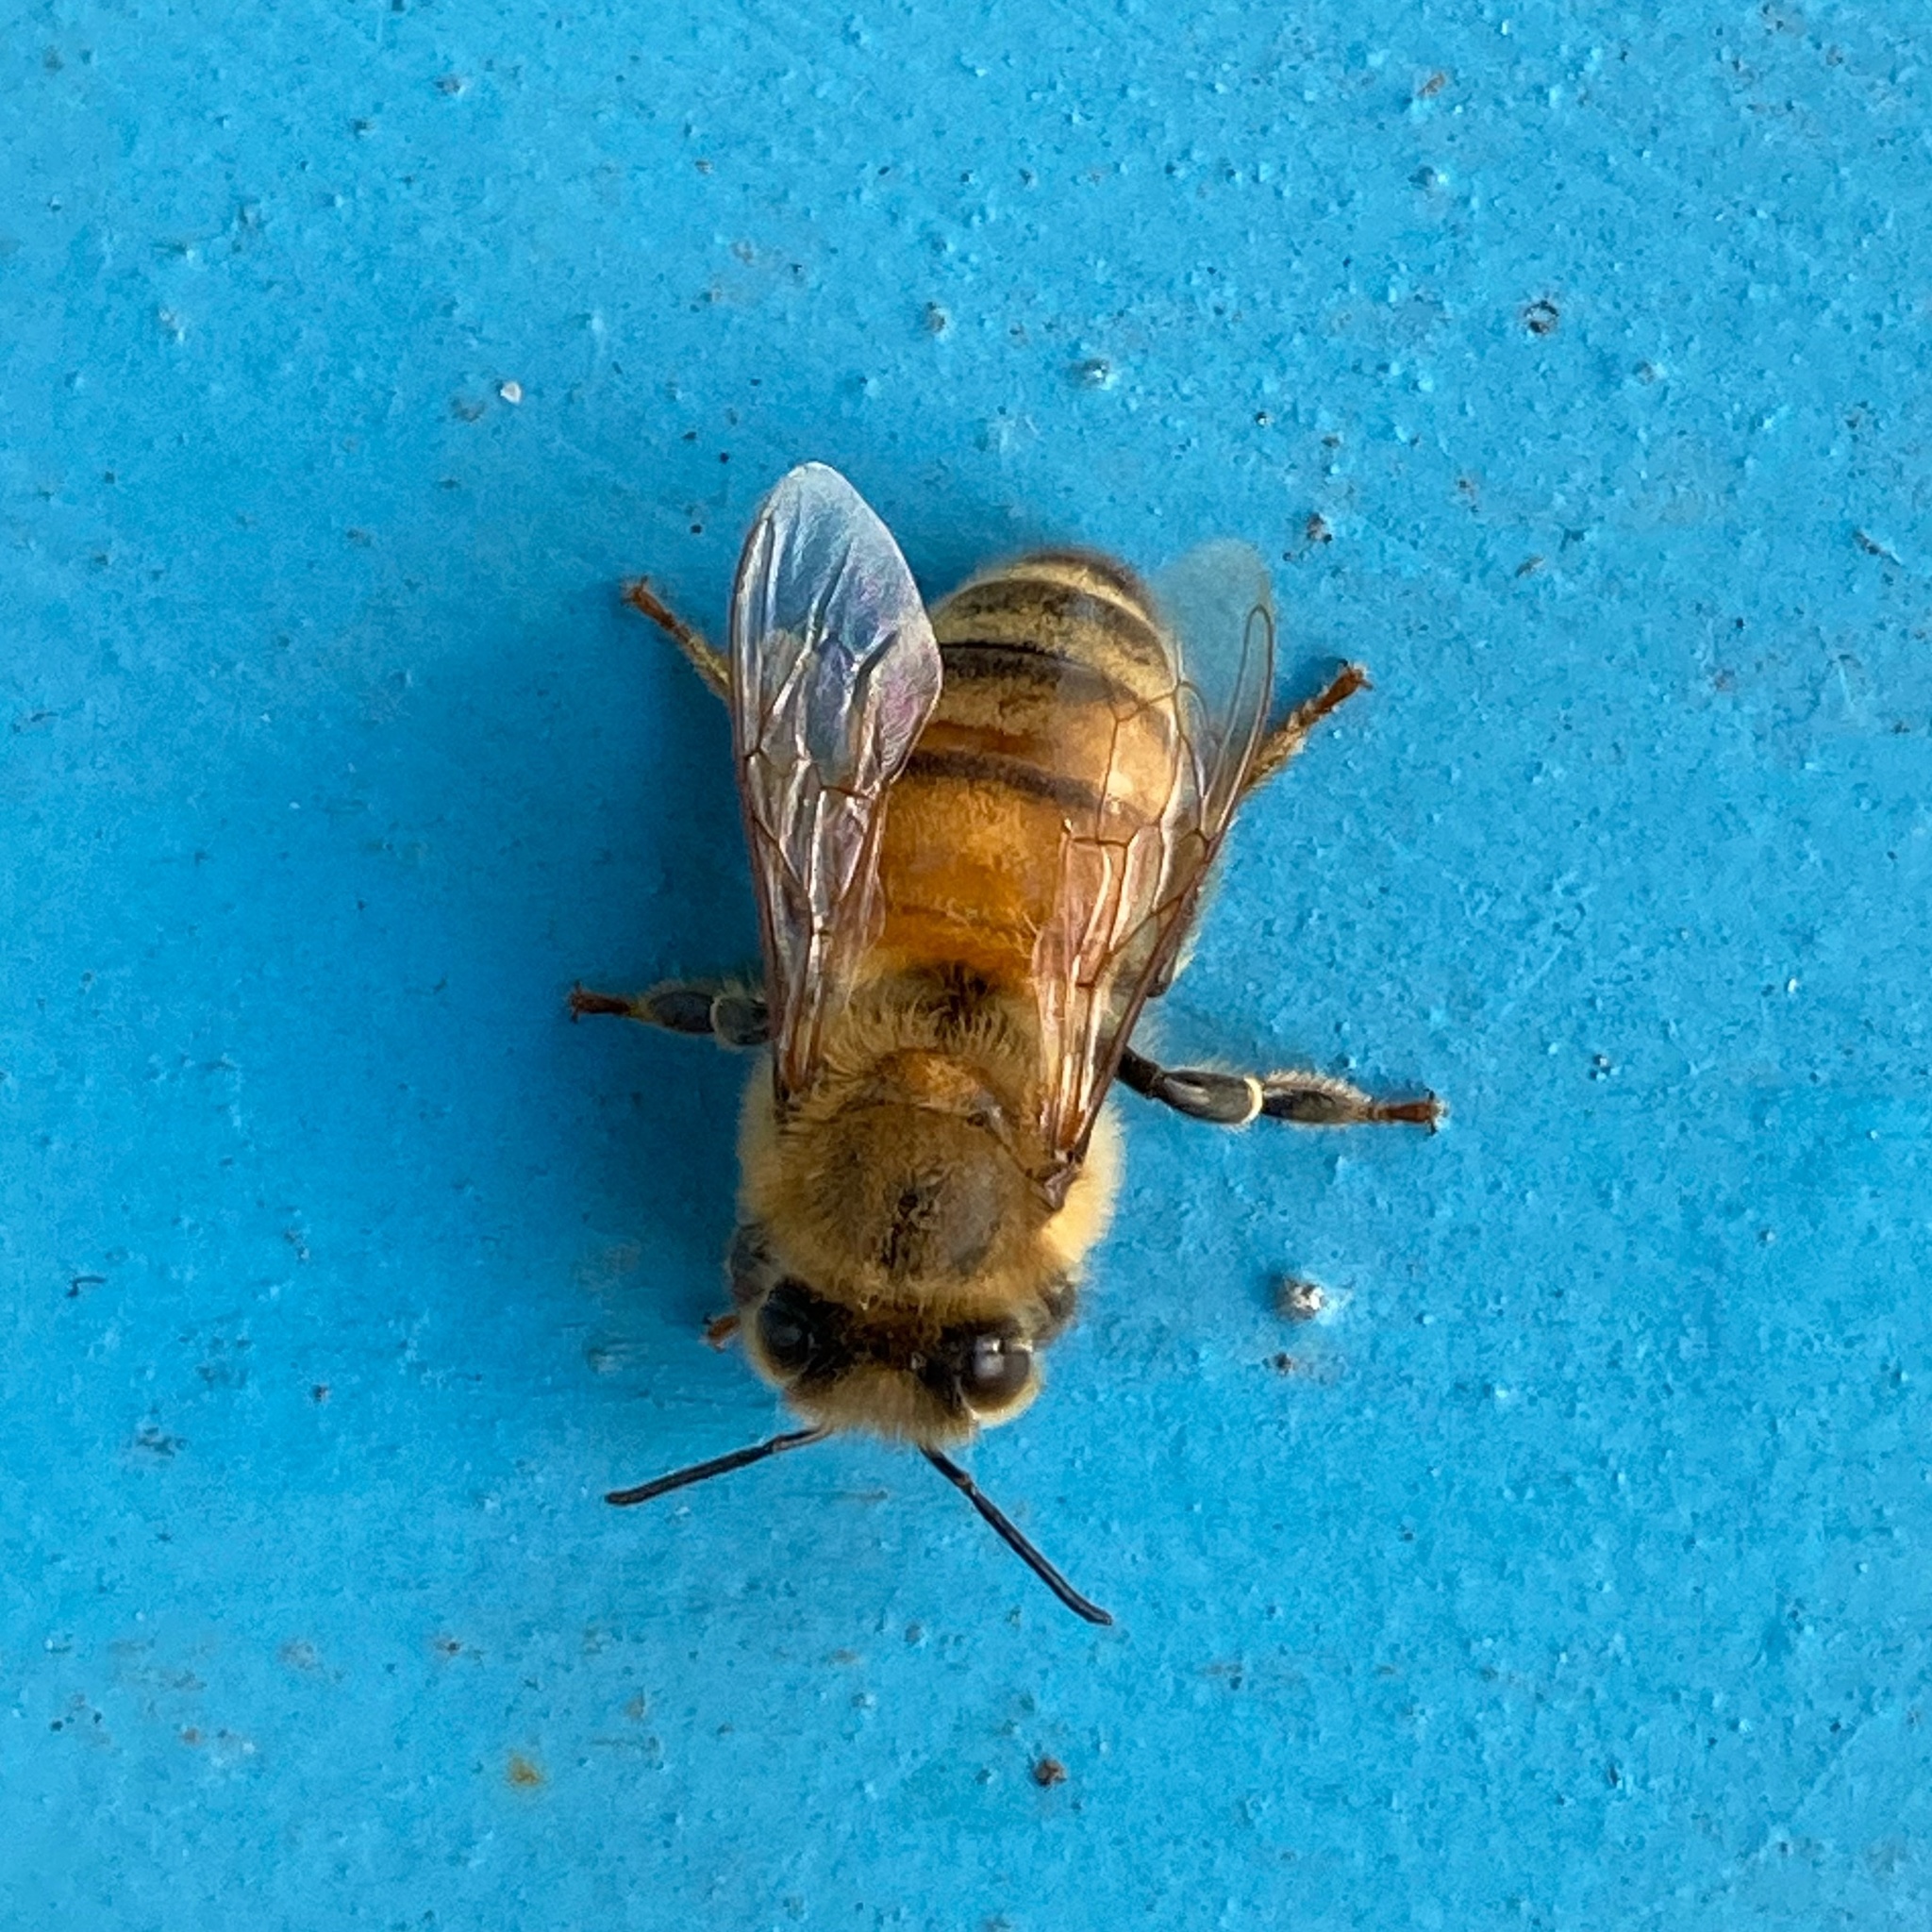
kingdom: Animalia
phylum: Arthropoda
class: Insecta
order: Hymenoptera
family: Apidae
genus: Apis
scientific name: Apis mellifera
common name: Honey bee
